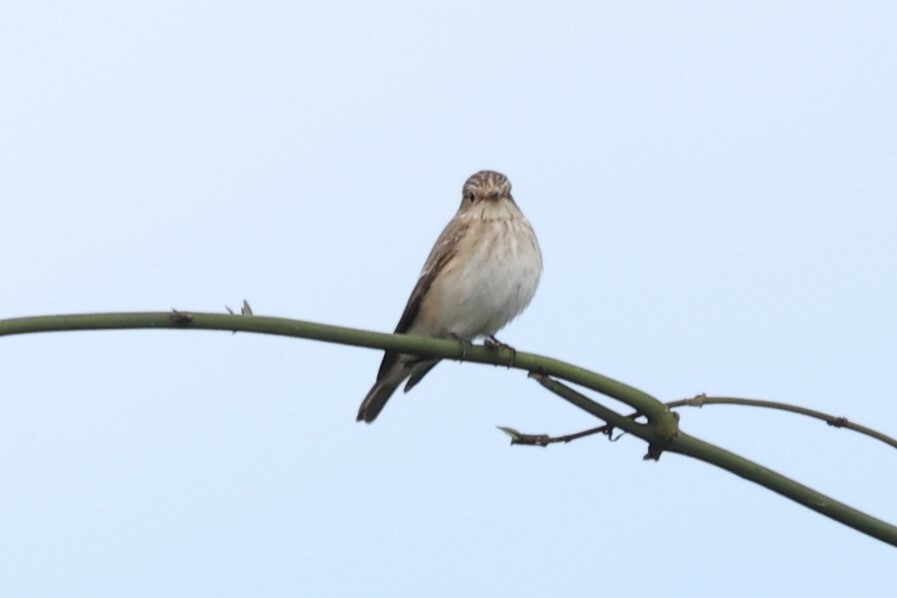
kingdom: Animalia
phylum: Chordata
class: Aves
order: Passeriformes
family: Muscicapidae
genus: Muscicapa
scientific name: Muscicapa striata
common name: Spotted flycatcher
